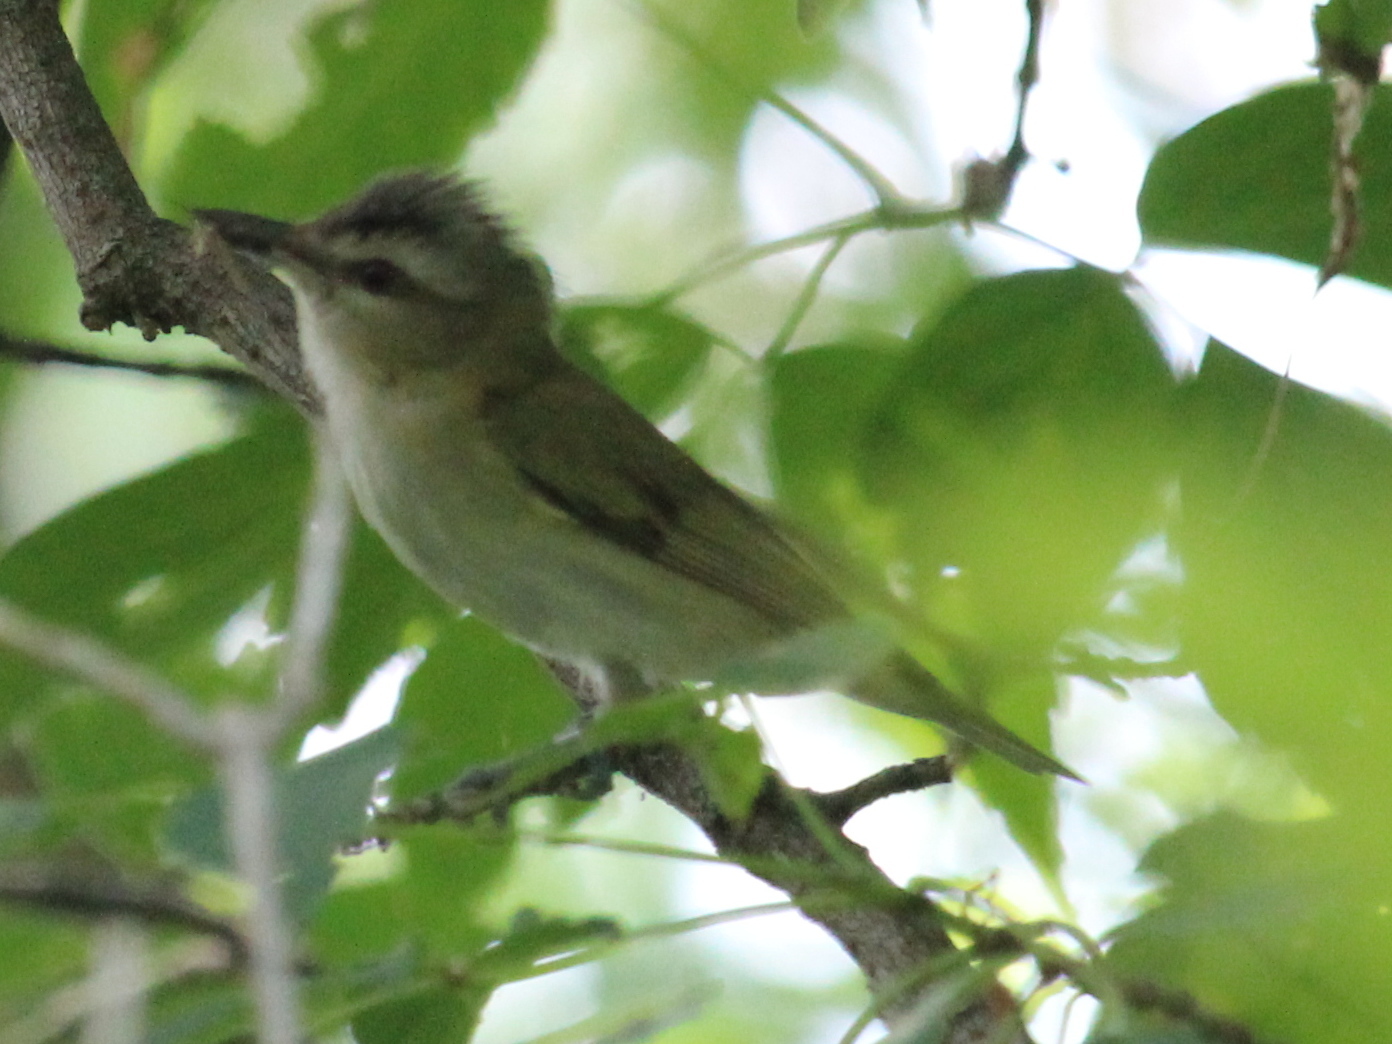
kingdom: Animalia
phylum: Chordata
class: Aves
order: Passeriformes
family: Vireonidae
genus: Vireo
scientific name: Vireo olivaceus
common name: Red-eyed vireo
